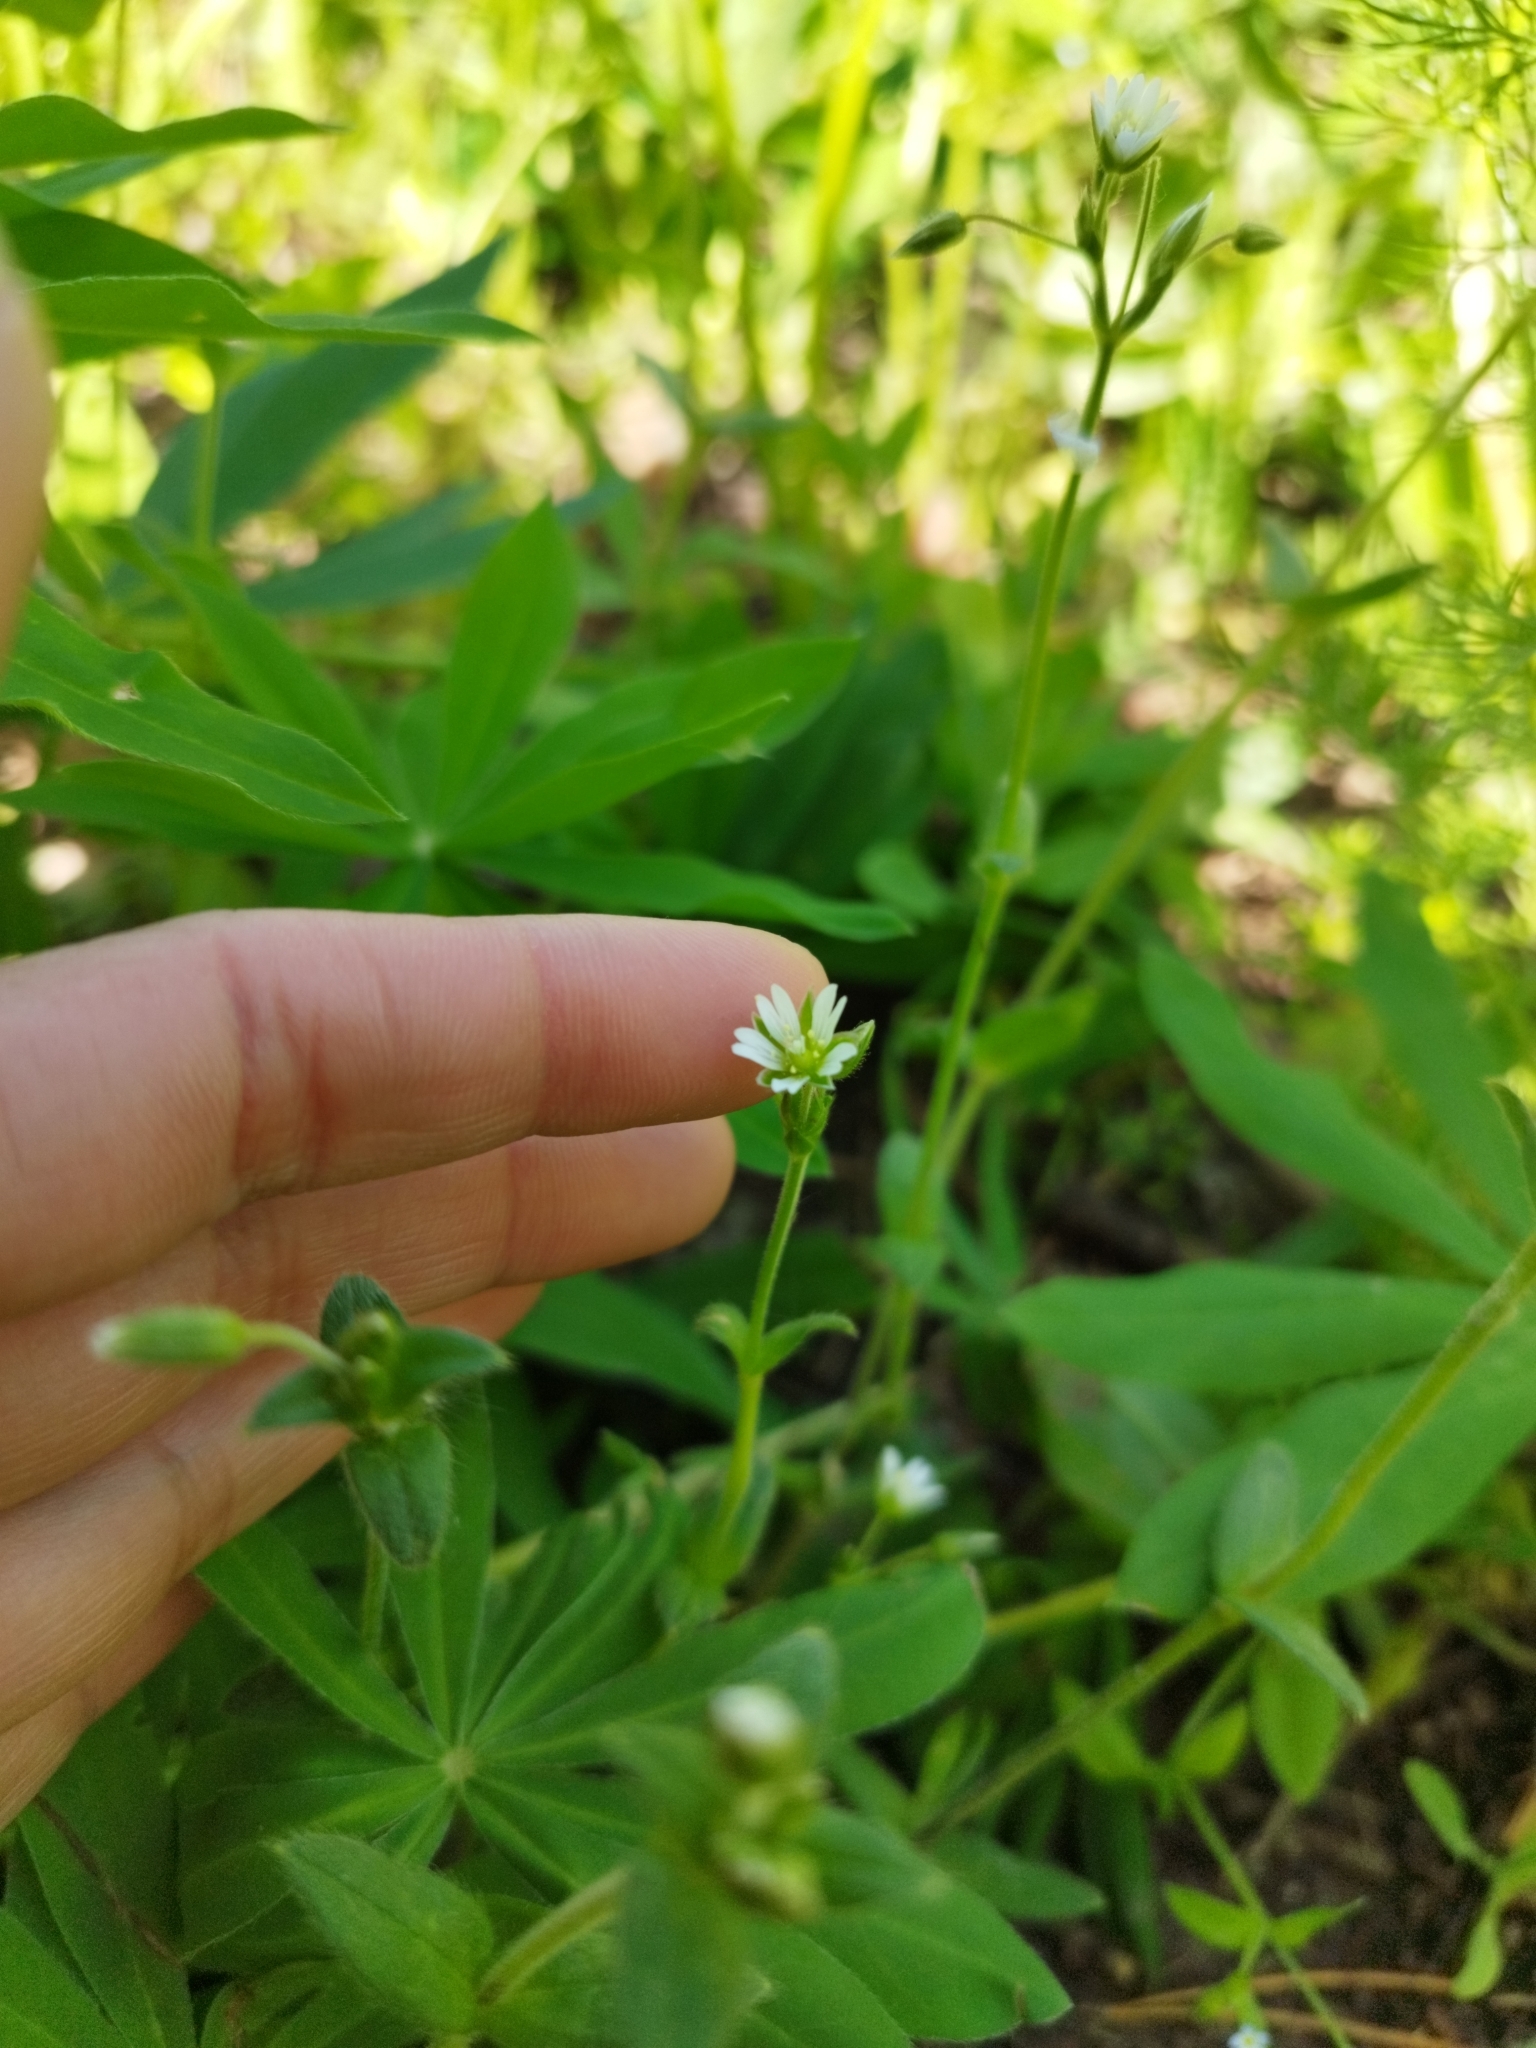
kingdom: Plantae
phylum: Tracheophyta
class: Magnoliopsida
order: Caryophyllales
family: Caryophyllaceae
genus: Cerastium
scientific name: Cerastium holosteoides
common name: Big chickweed
